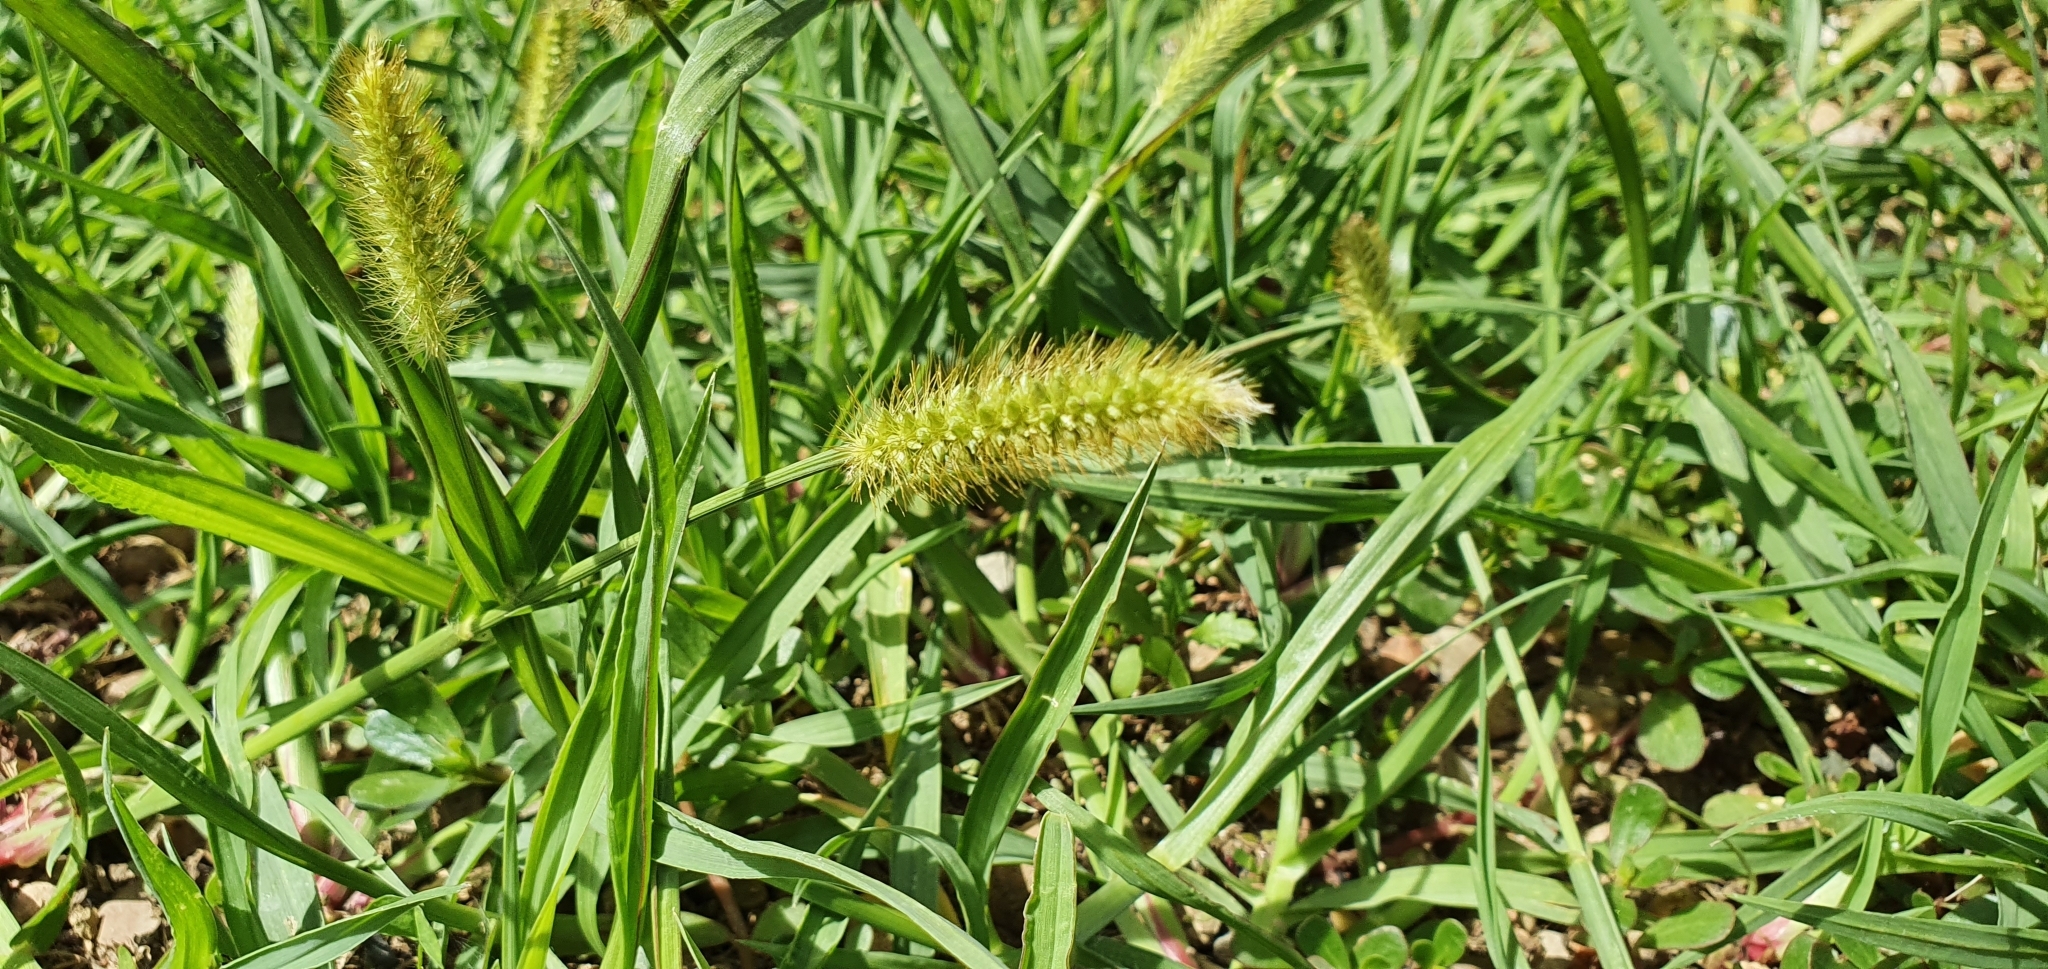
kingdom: Plantae
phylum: Tracheophyta
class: Liliopsida
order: Poales
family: Poaceae
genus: Setaria
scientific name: Setaria pumila
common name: Yellow bristle-grass
